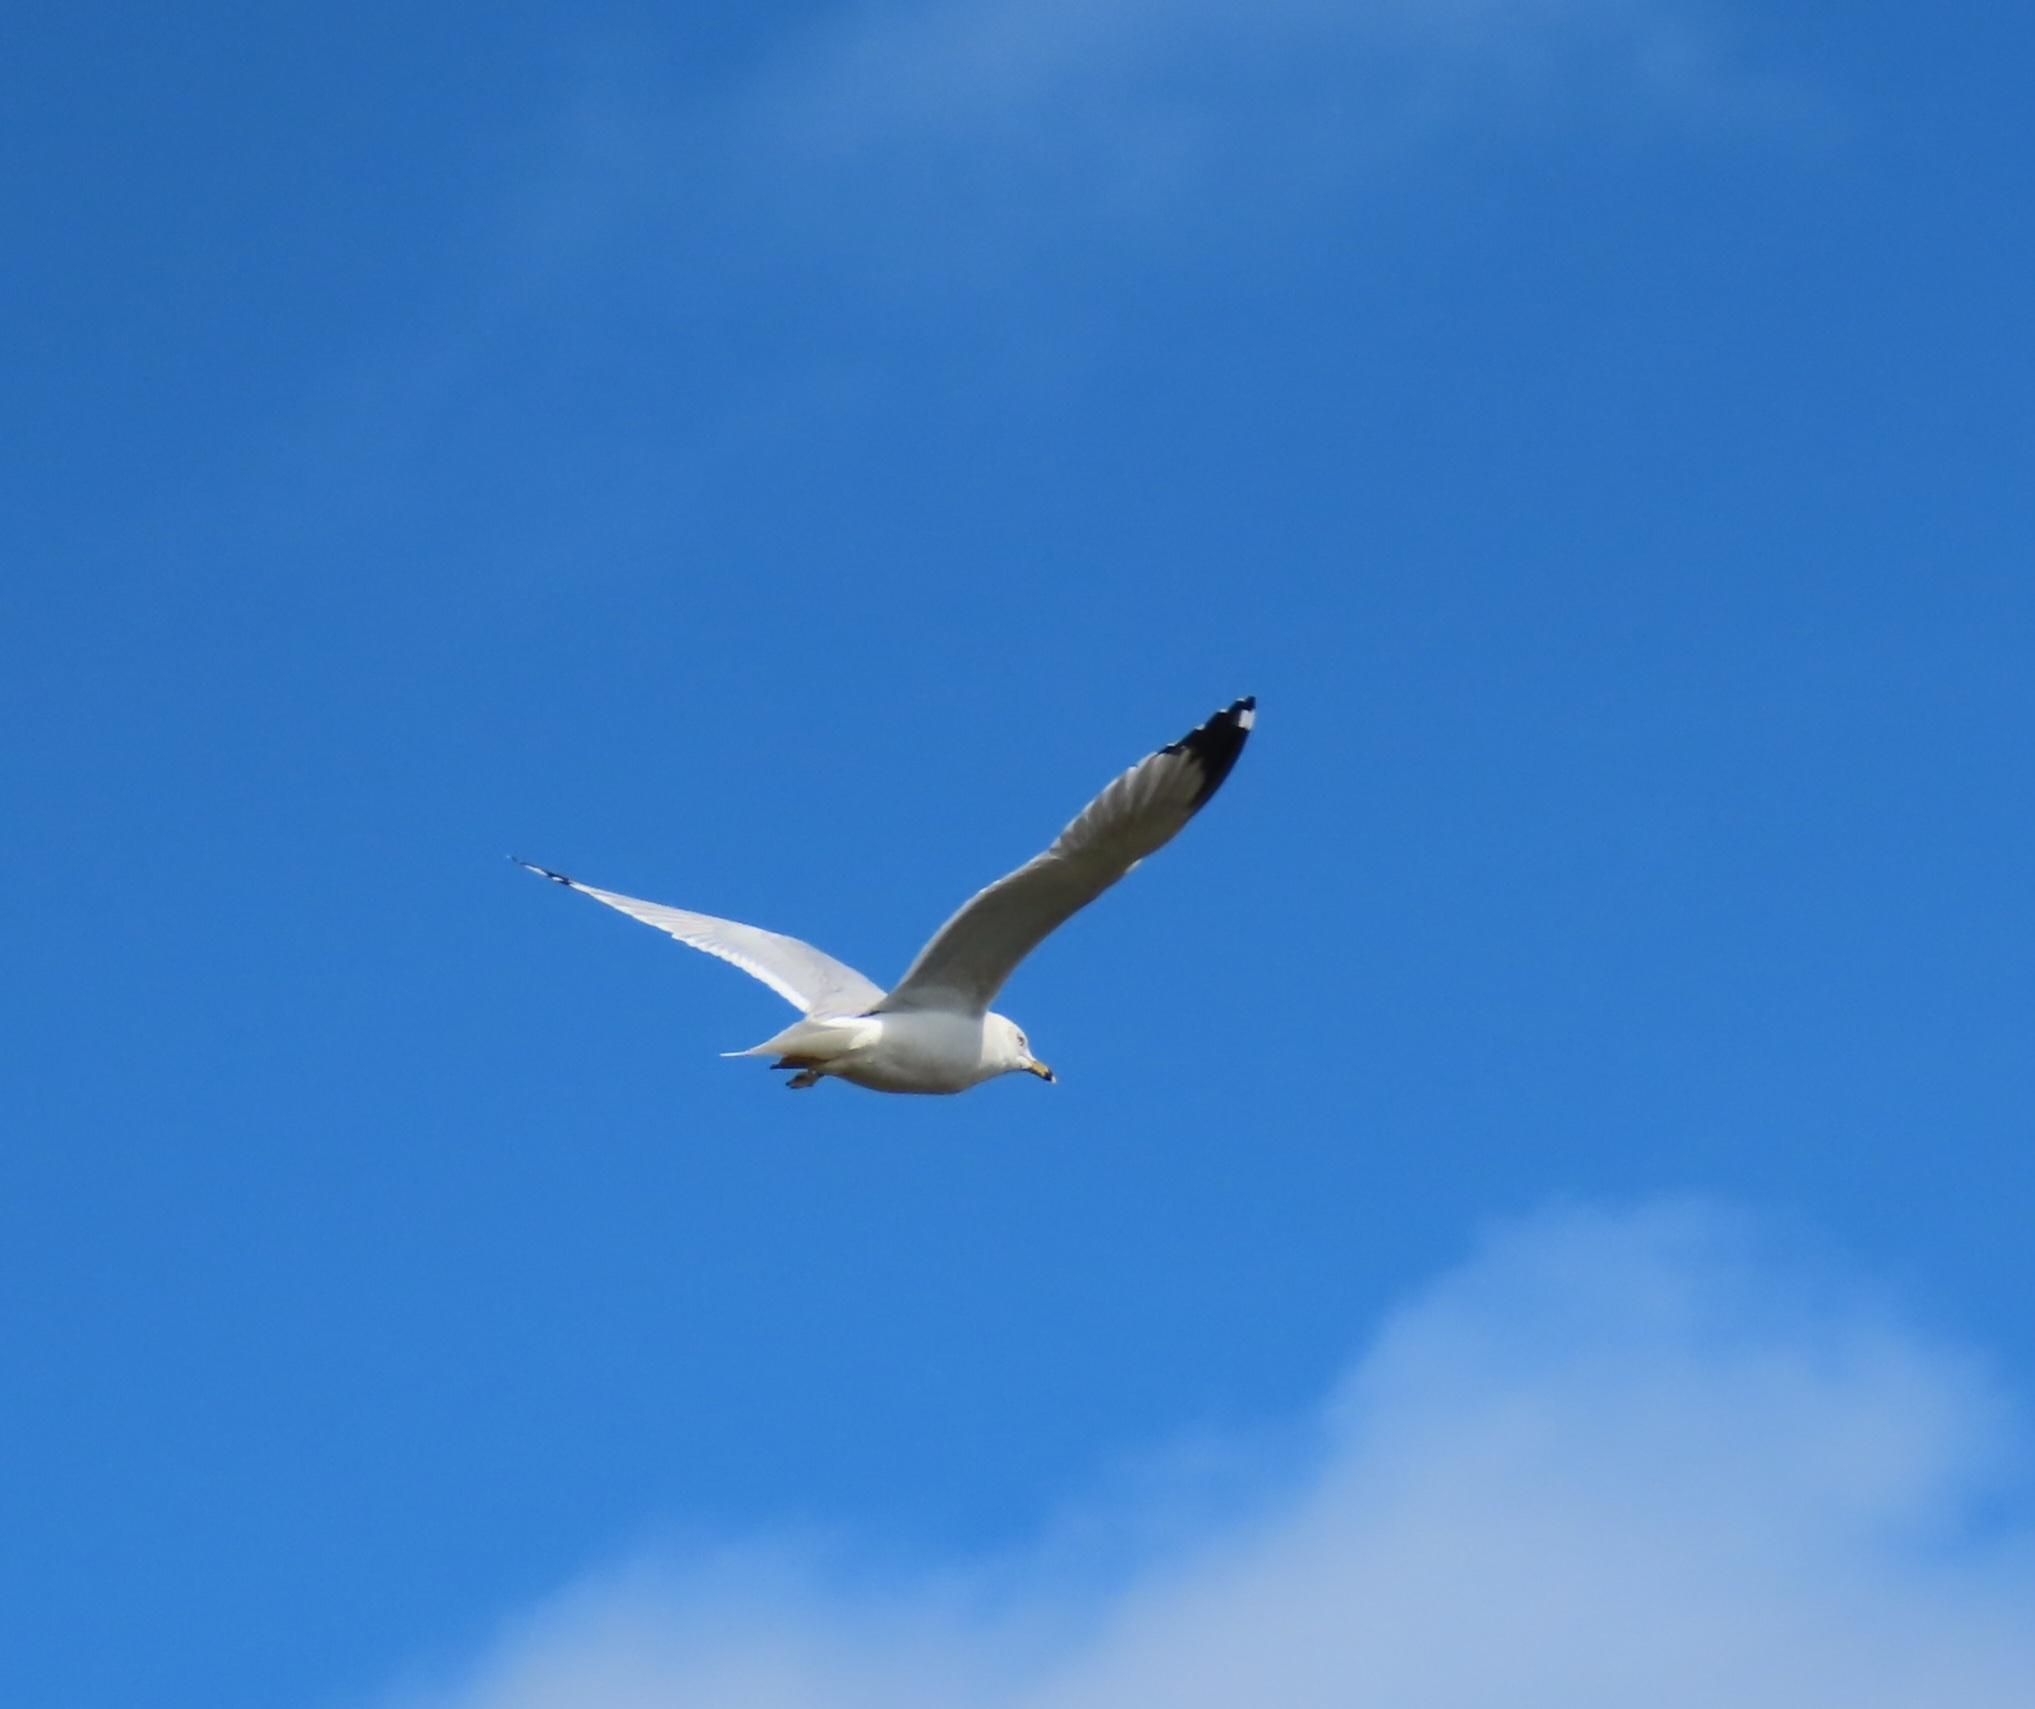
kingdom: Animalia
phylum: Chordata
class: Aves
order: Charadriiformes
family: Laridae
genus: Larus
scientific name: Larus delawarensis
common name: Ring-billed gull
